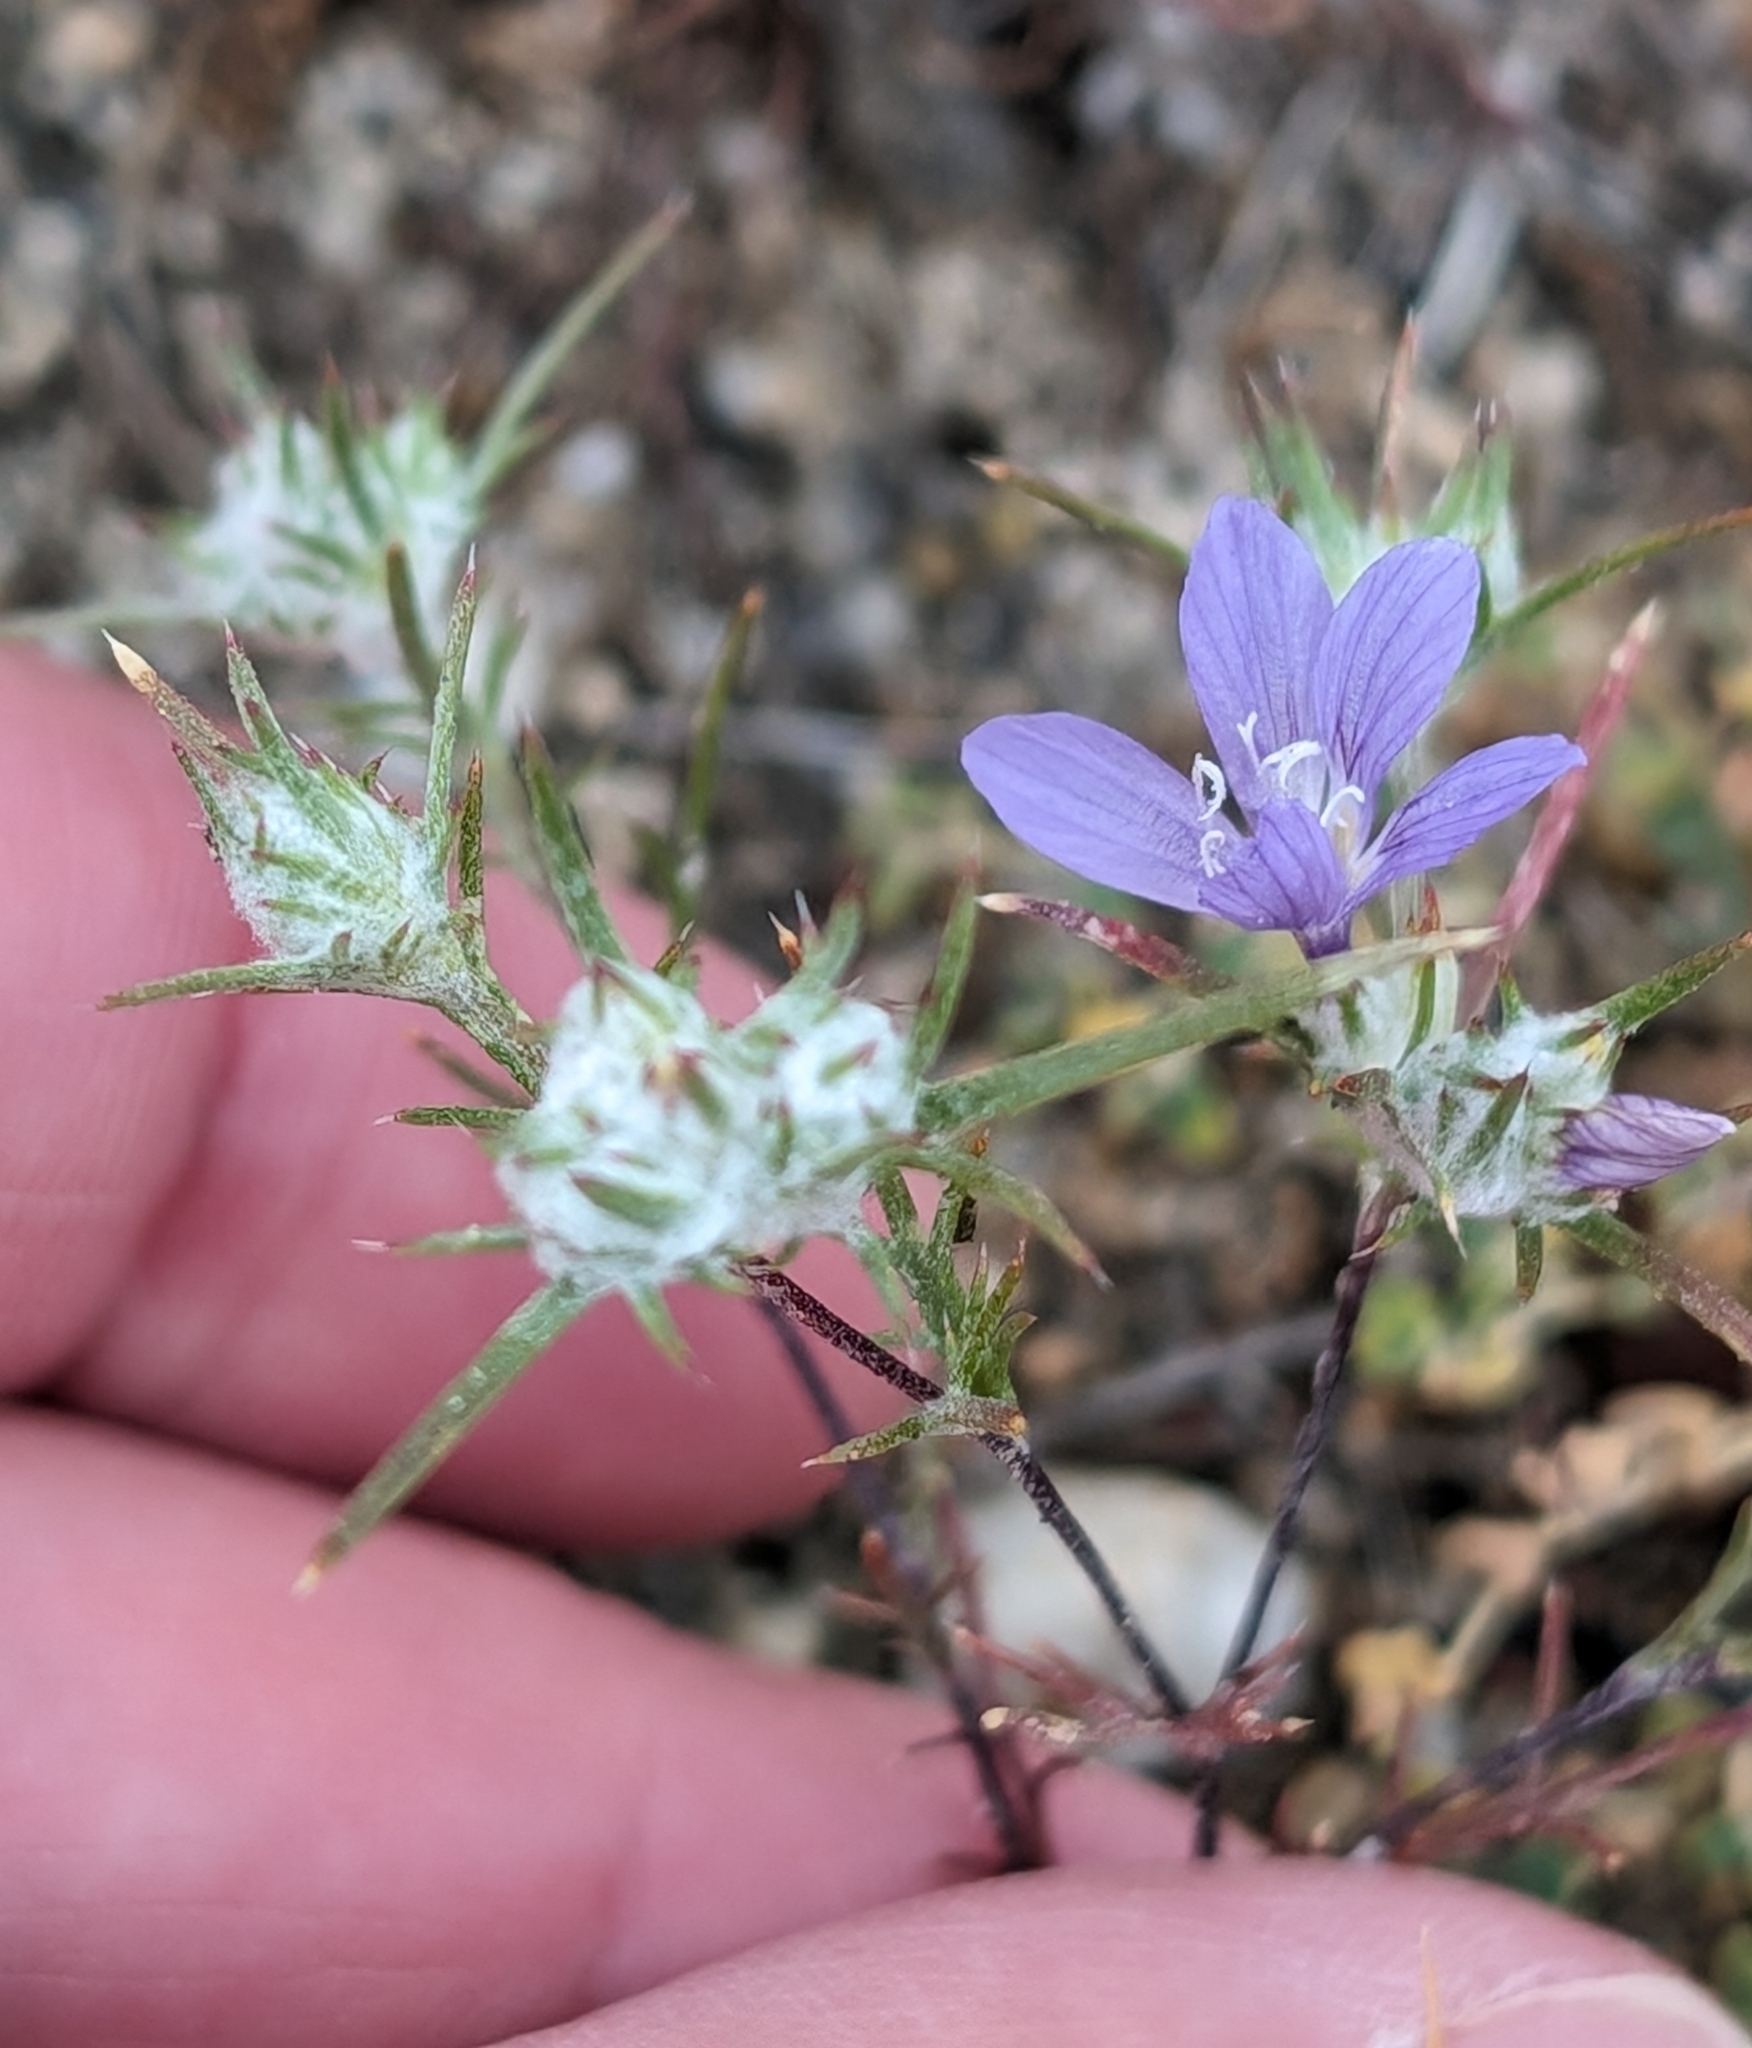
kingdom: Plantae
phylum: Tracheophyta
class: Magnoliopsida
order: Ericales
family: Polemoniaceae
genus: Eriastrum
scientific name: Eriastrum eremicum
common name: Desert eriastrum
